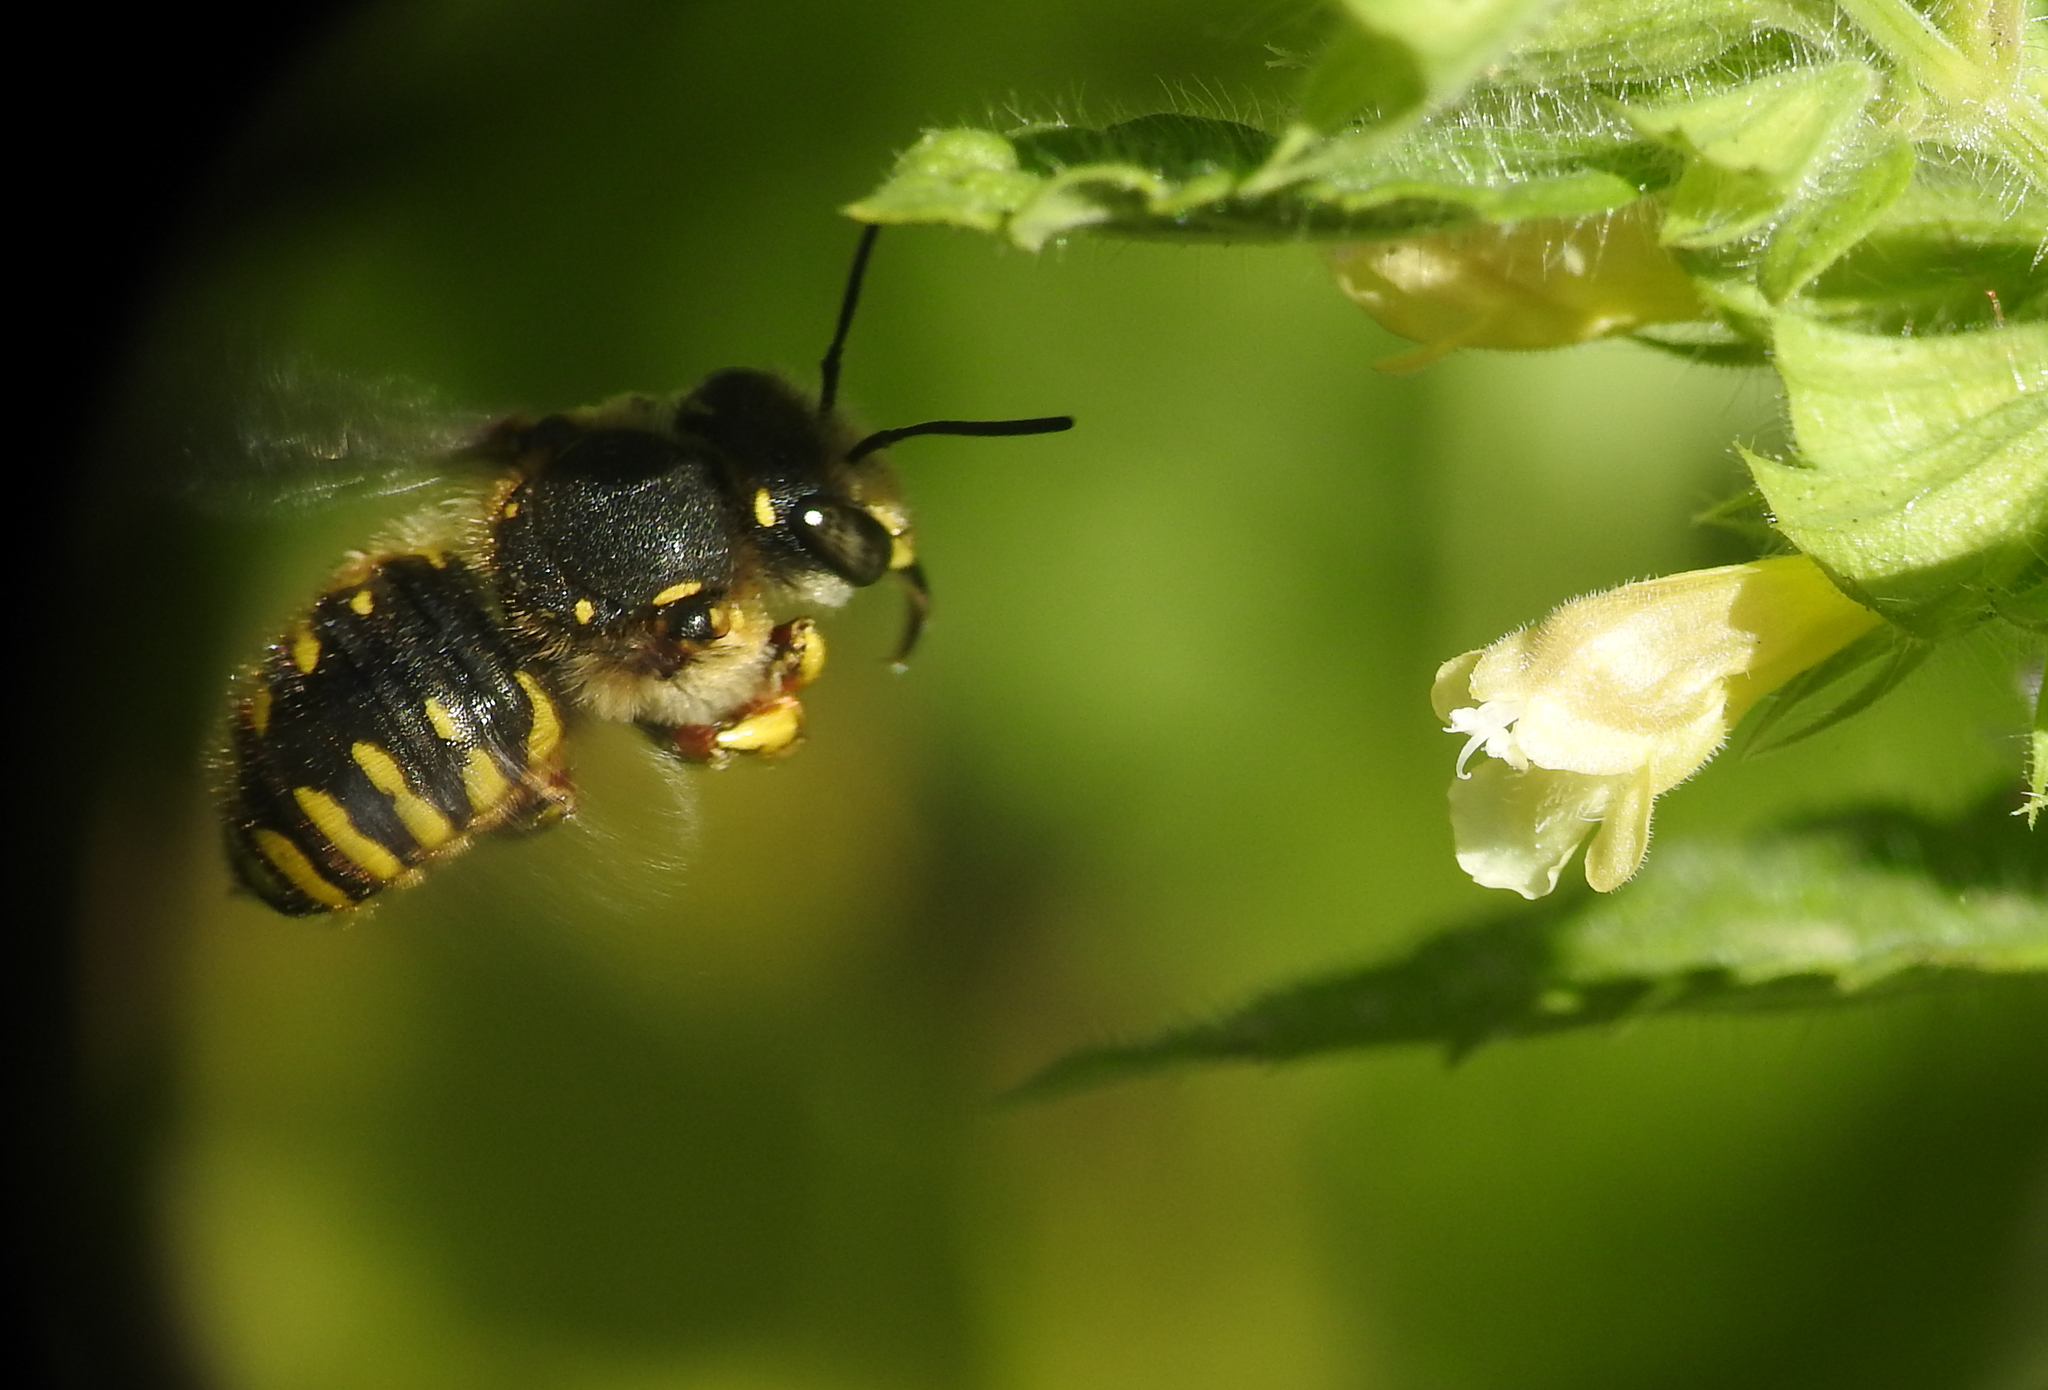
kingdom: Animalia
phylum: Arthropoda
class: Insecta
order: Hymenoptera
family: Megachilidae
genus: Anthidium
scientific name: Anthidium manicatum
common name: Wool carder bee
